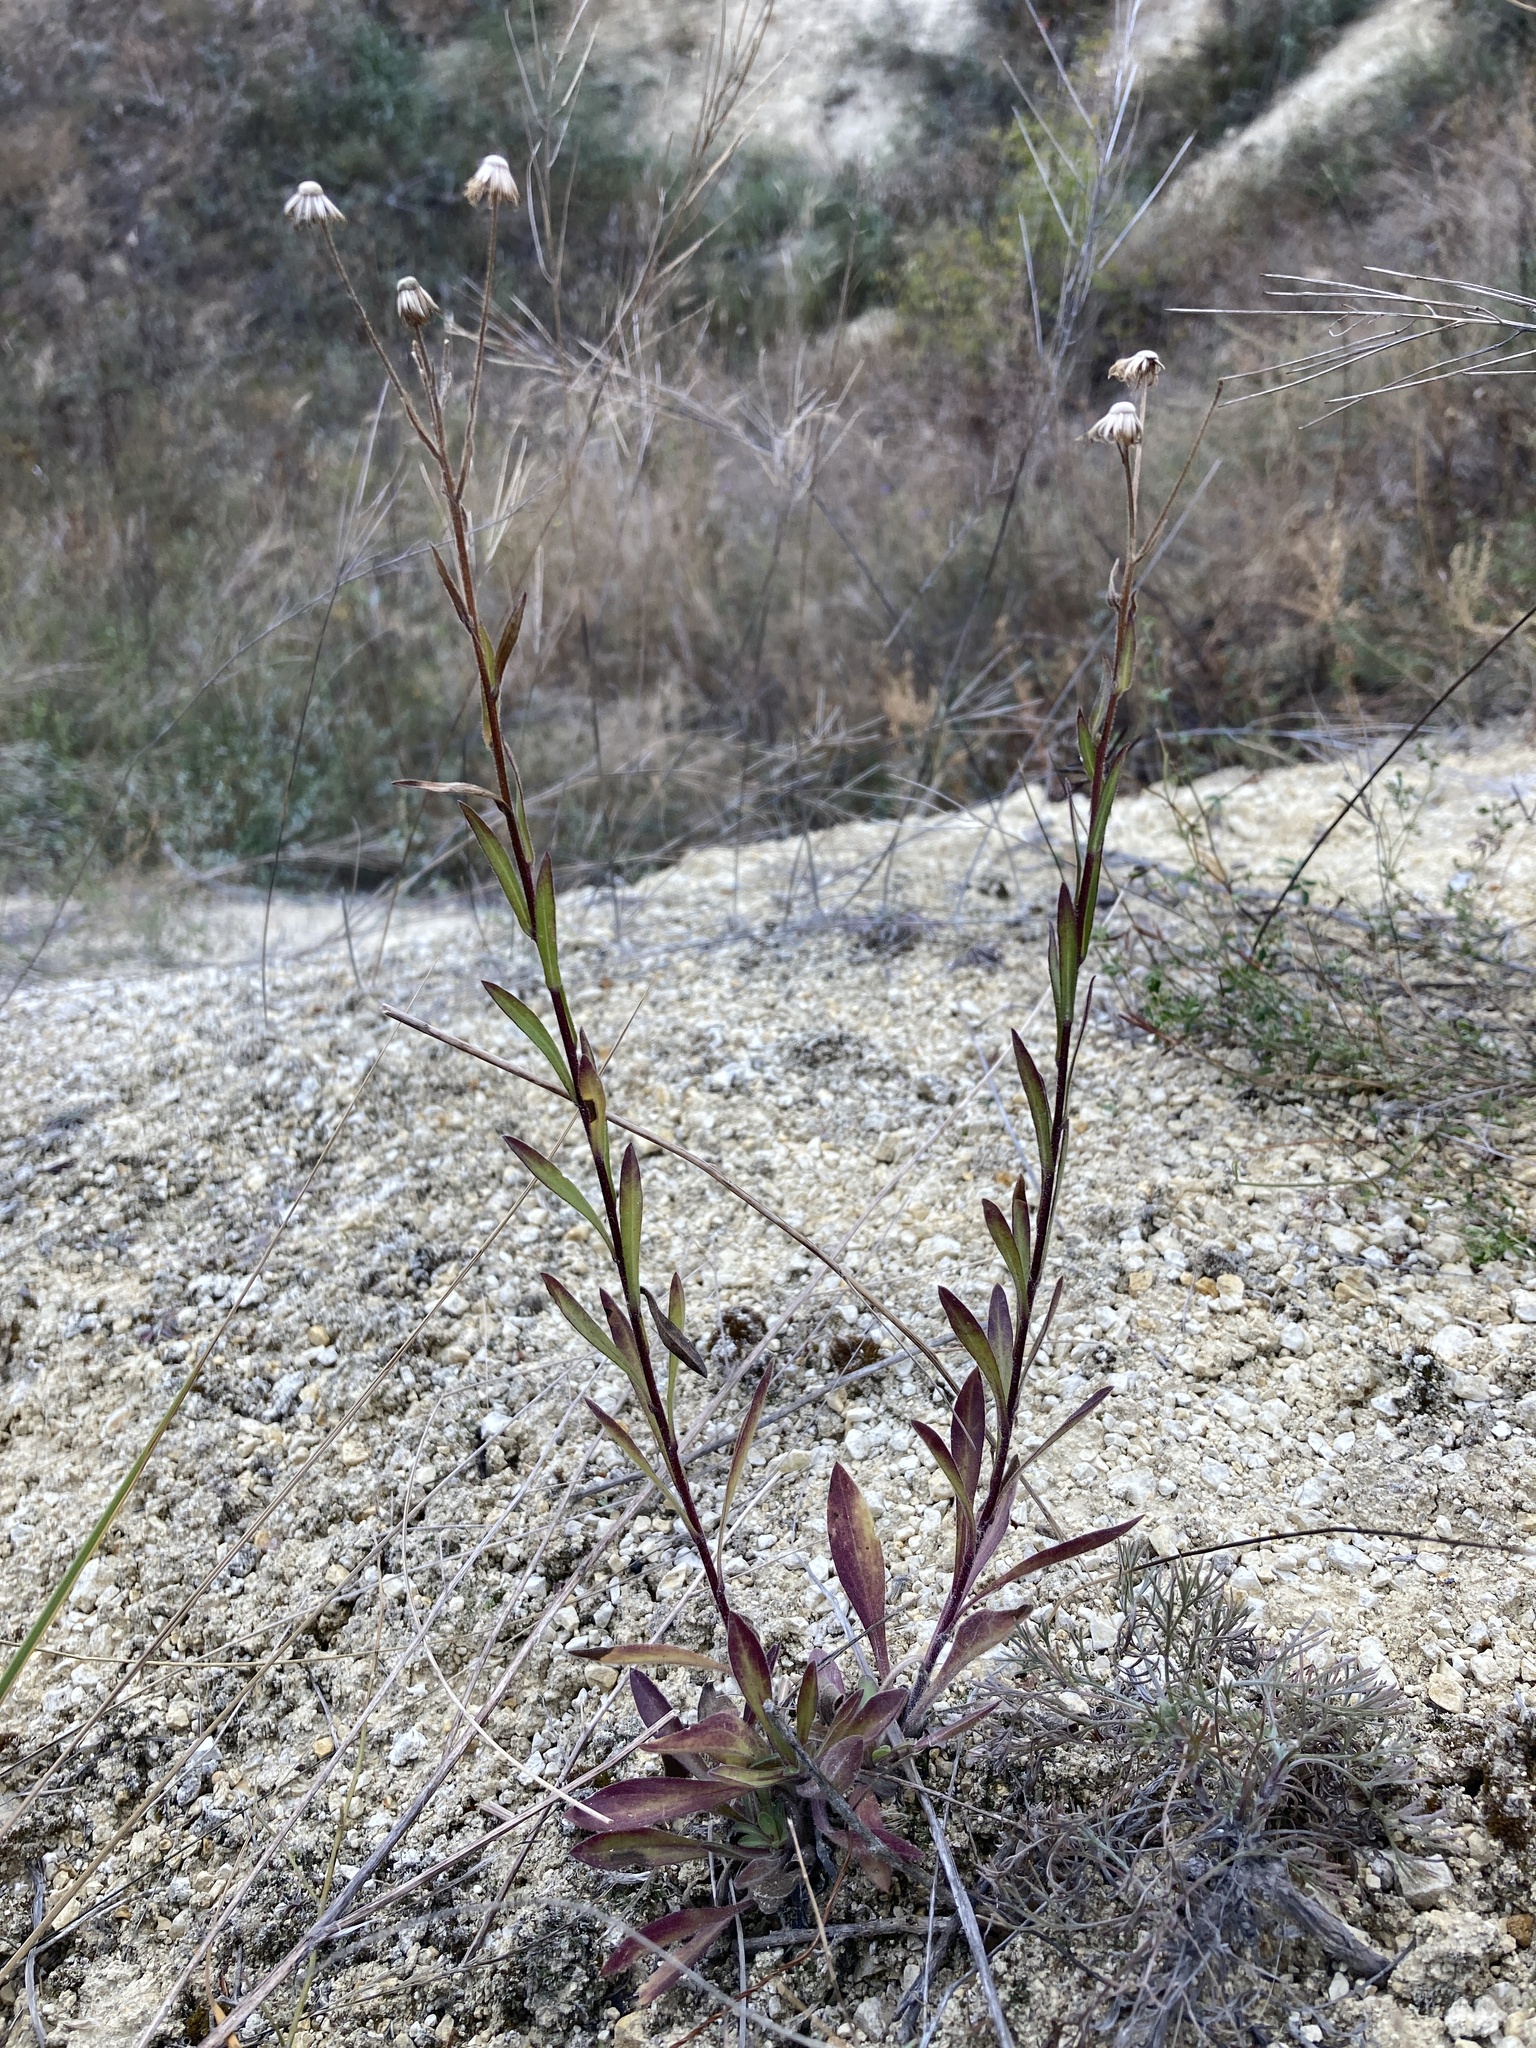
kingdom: Plantae
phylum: Tracheophyta
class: Magnoliopsida
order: Asterales
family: Asteraceae
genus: Erigeron
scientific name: Erigeron acris
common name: Blue fleabane
